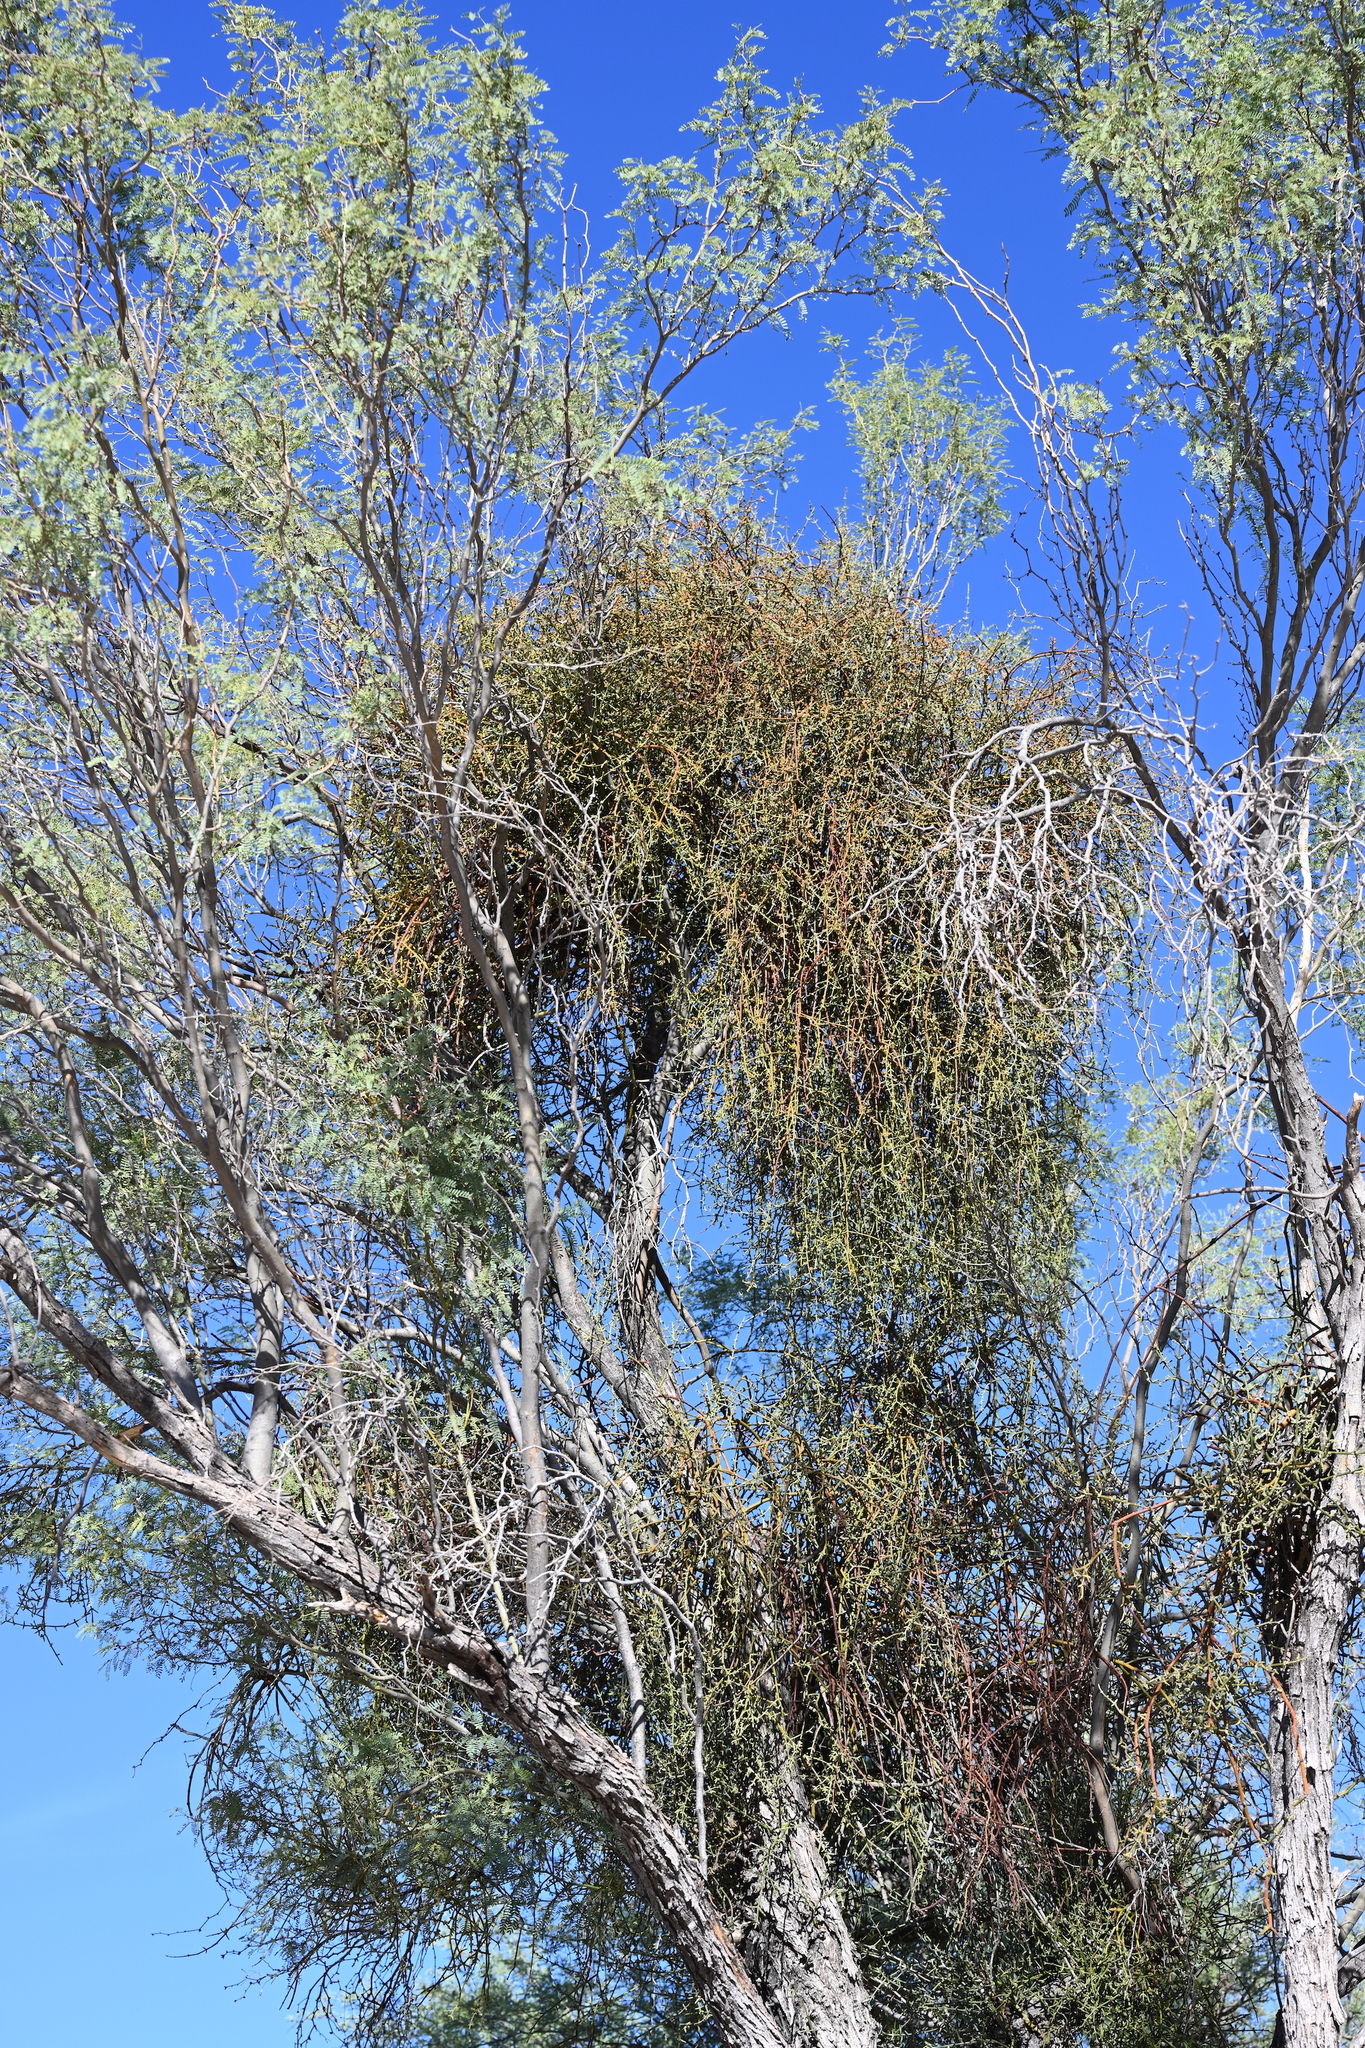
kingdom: Plantae
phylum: Tracheophyta
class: Magnoliopsida
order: Santalales
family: Viscaceae
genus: Phoradendron
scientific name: Phoradendron californicum
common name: Acacia mistletoe
